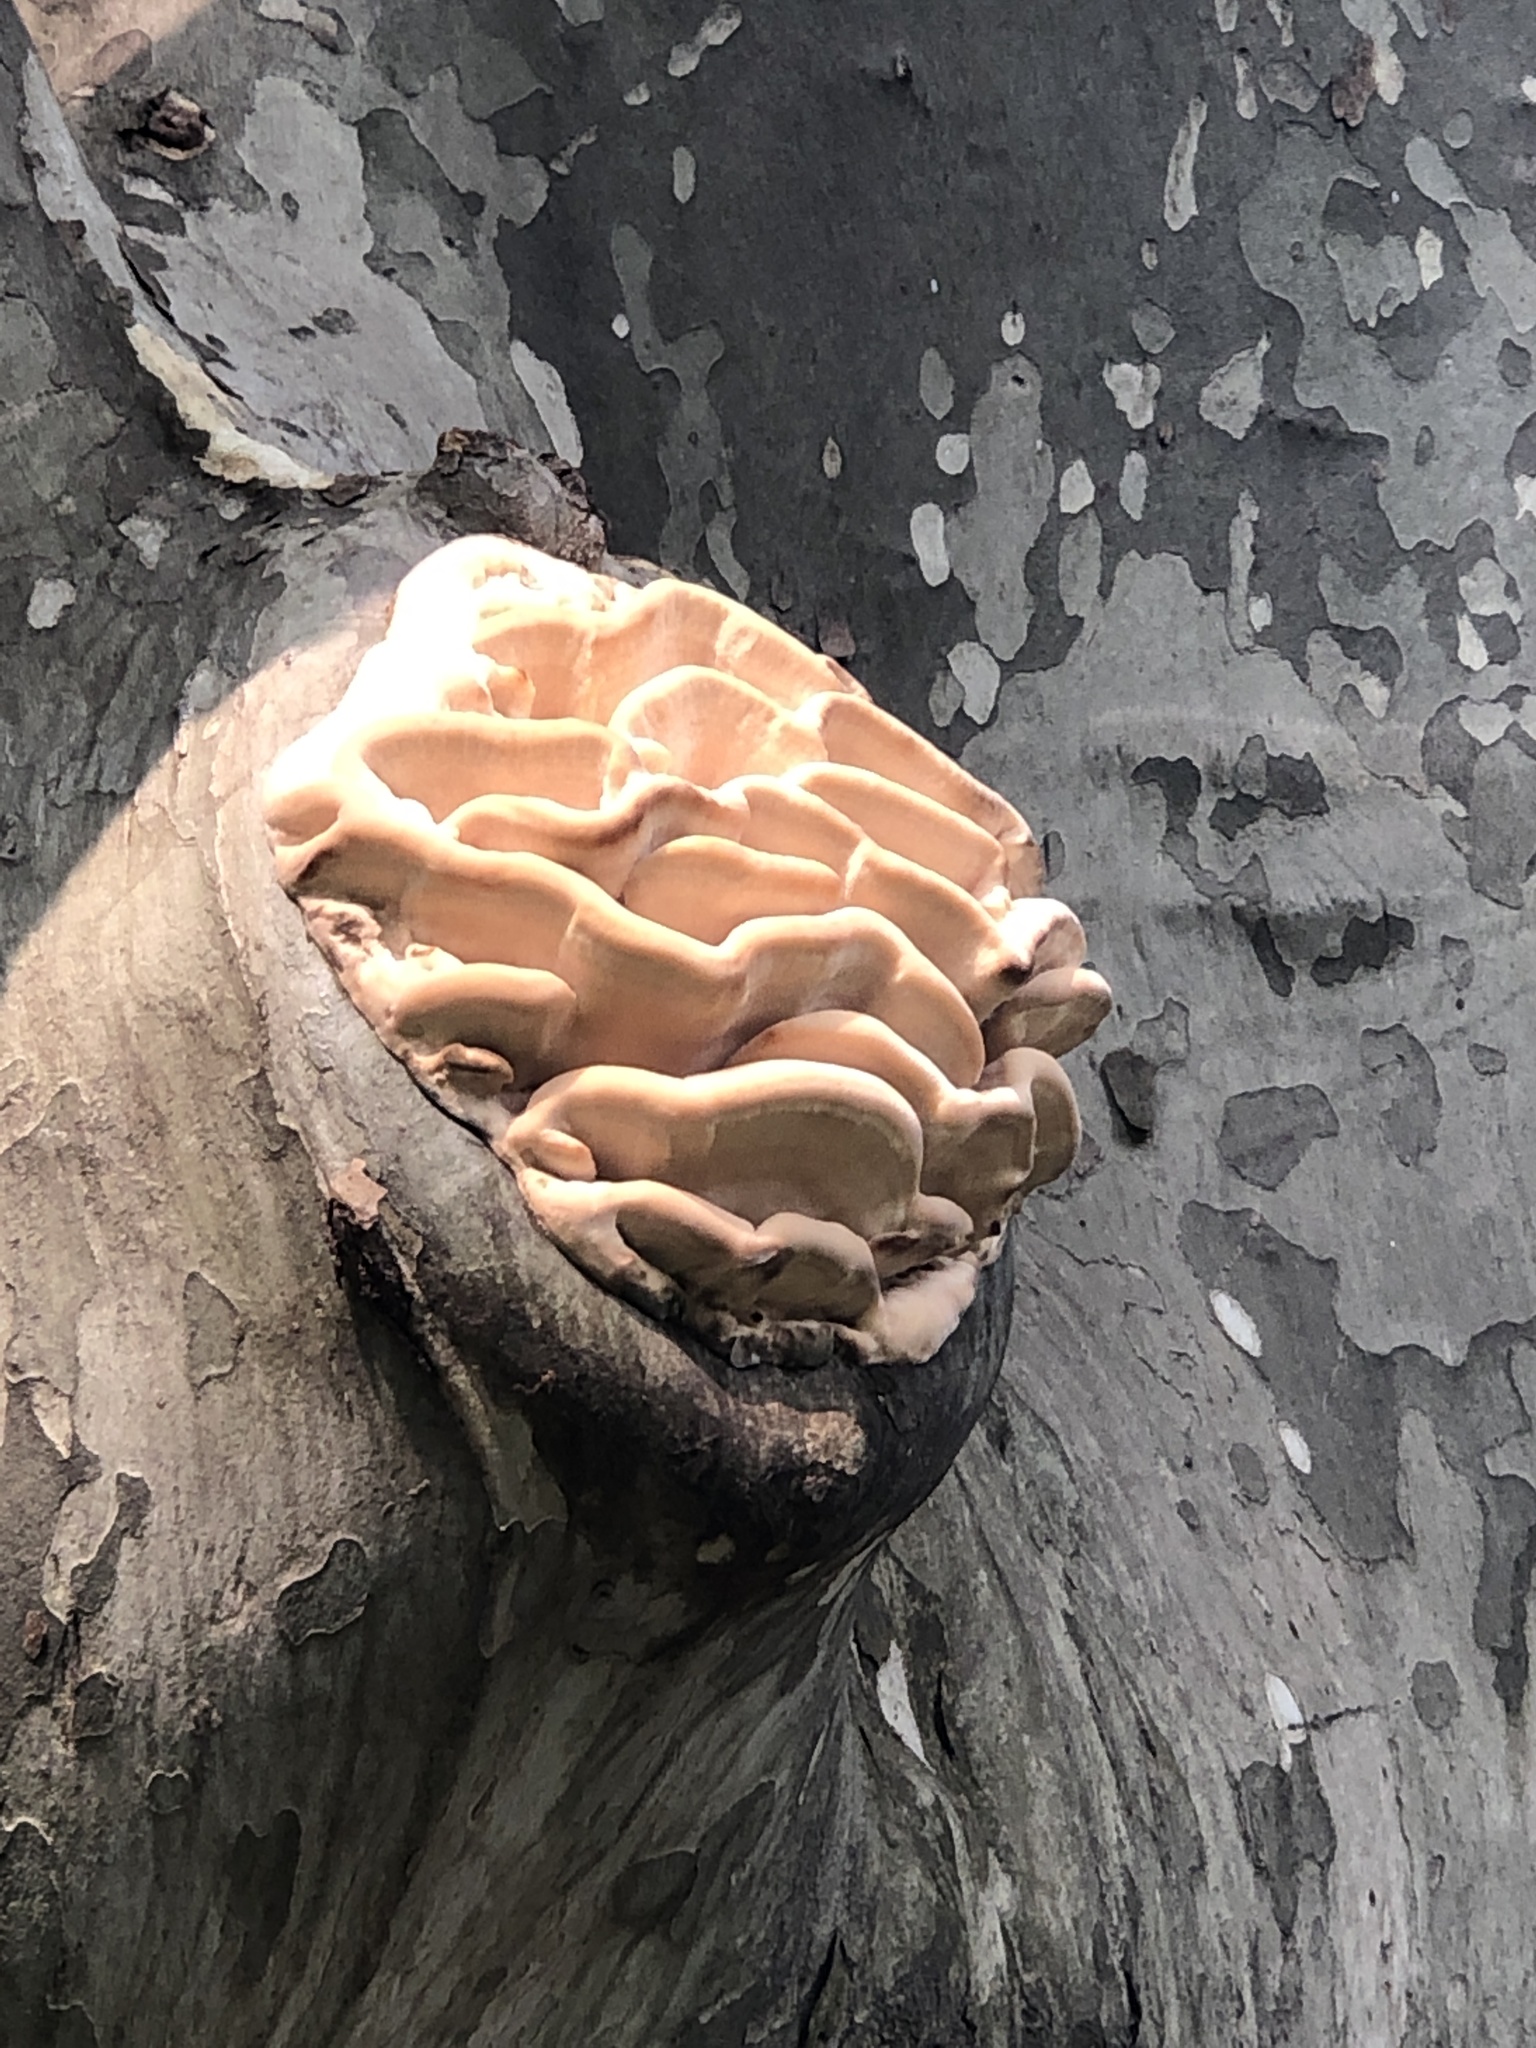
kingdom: Fungi
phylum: Basidiomycota
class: Agaricomycetes
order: Polyporales
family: Meruliaceae
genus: Climacodon
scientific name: Climacodon septentrionalis
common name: Northern tooth
